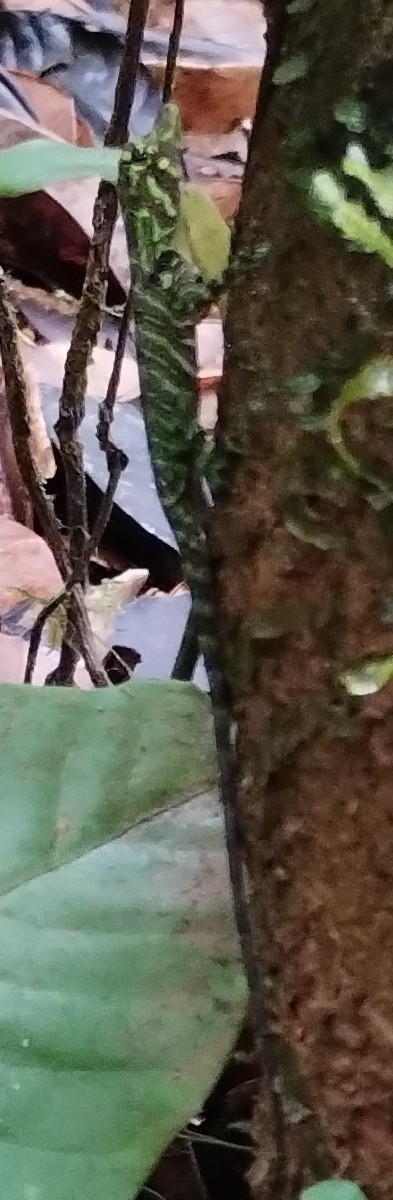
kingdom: Animalia
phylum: Chordata
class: Squamata
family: Dactyloidae
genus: Anolis
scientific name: Anolis latifrons
